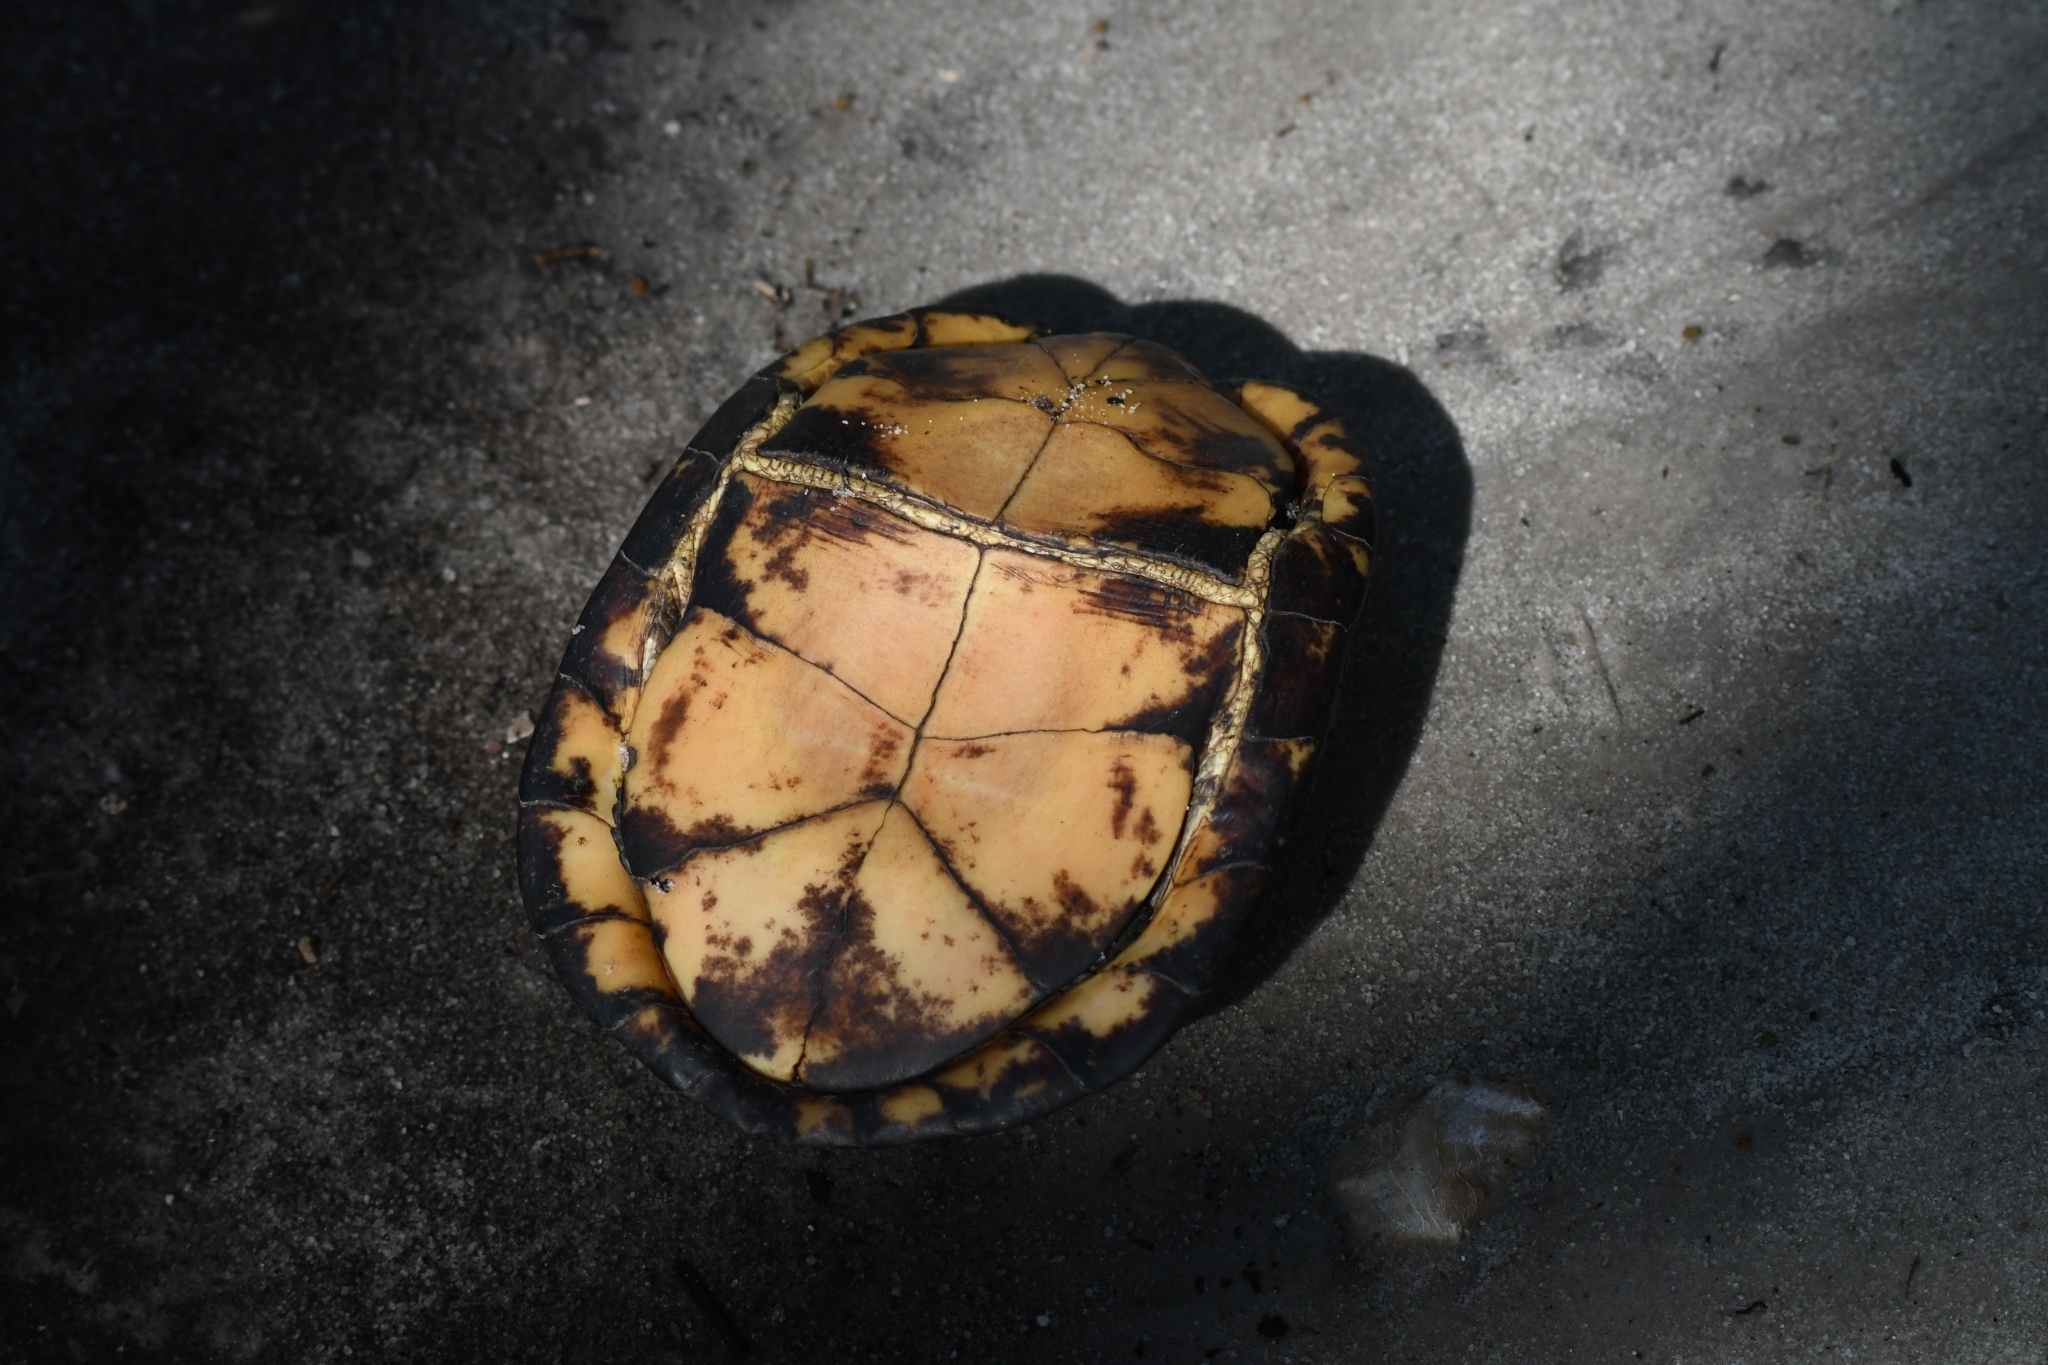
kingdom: Animalia
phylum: Chordata
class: Testudines
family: Emydidae
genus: Terrapene
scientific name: Terrapene carolina
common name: Common box turtle
